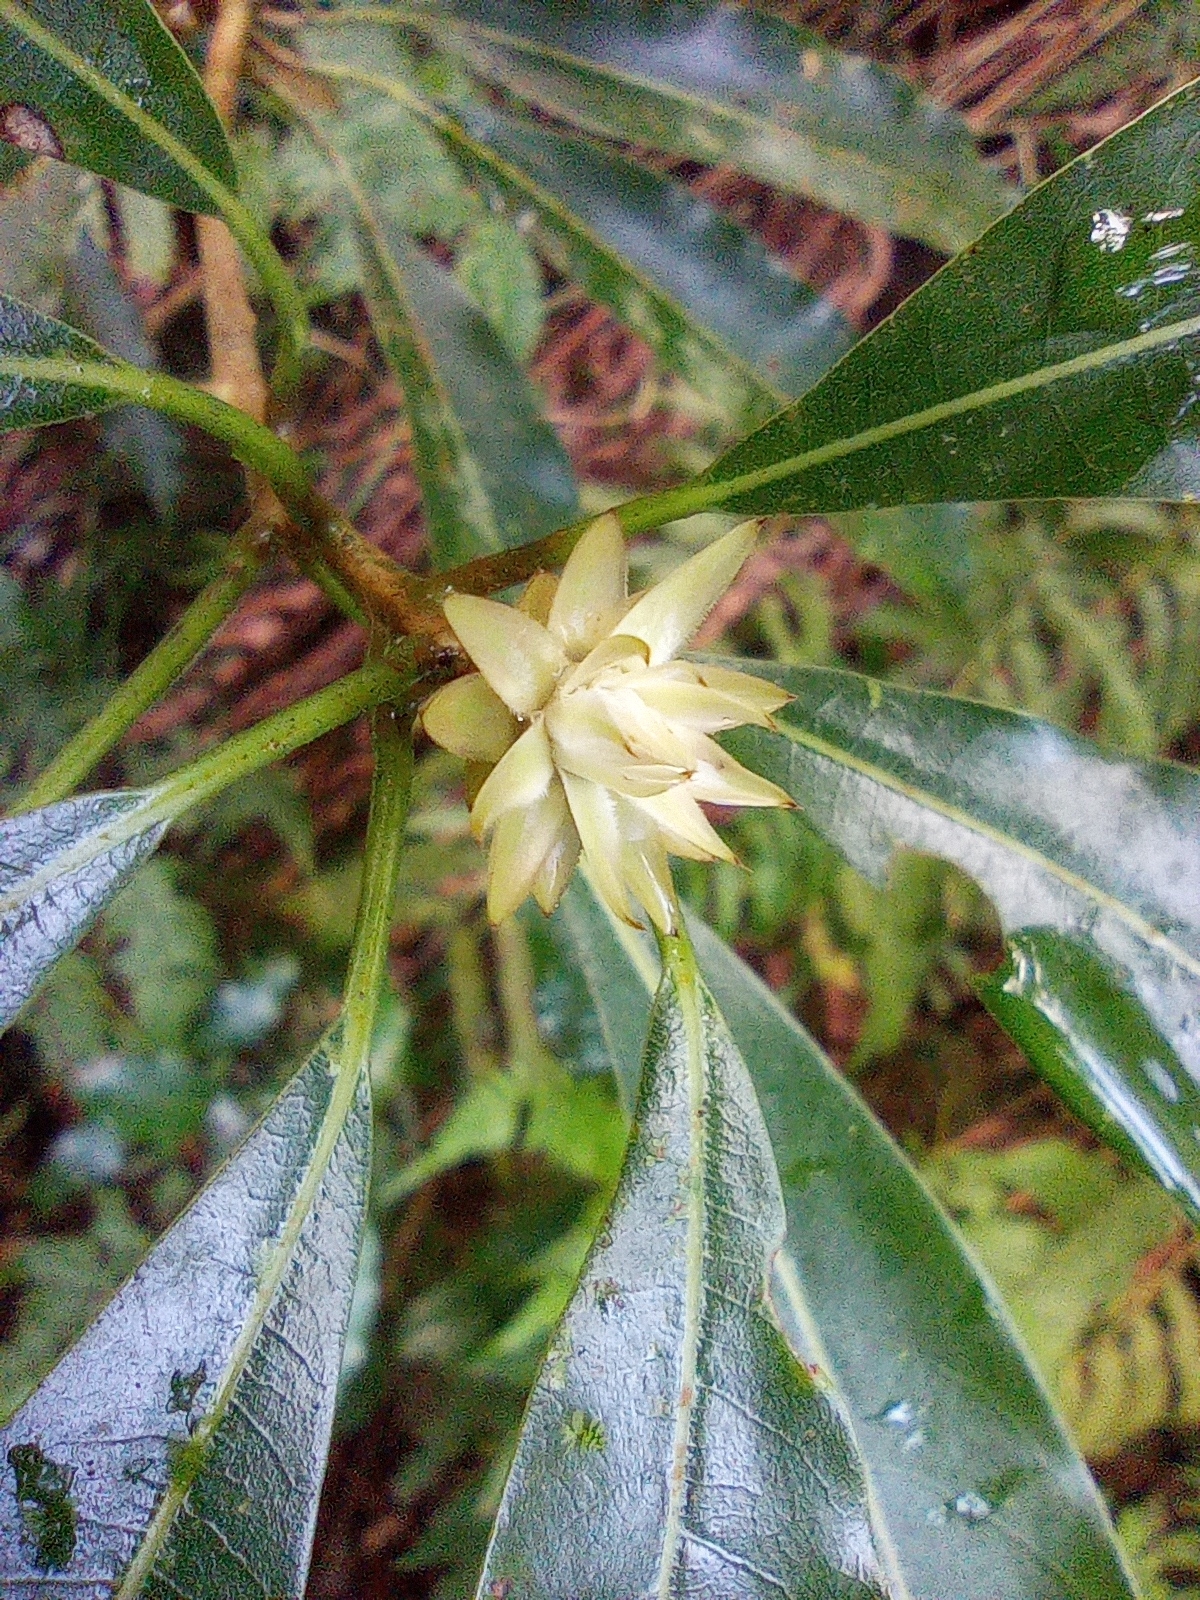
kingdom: Plantae
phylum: Tracheophyta
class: Magnoliopsida
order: Laurales
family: Lauraceae
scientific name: Lauraceae
